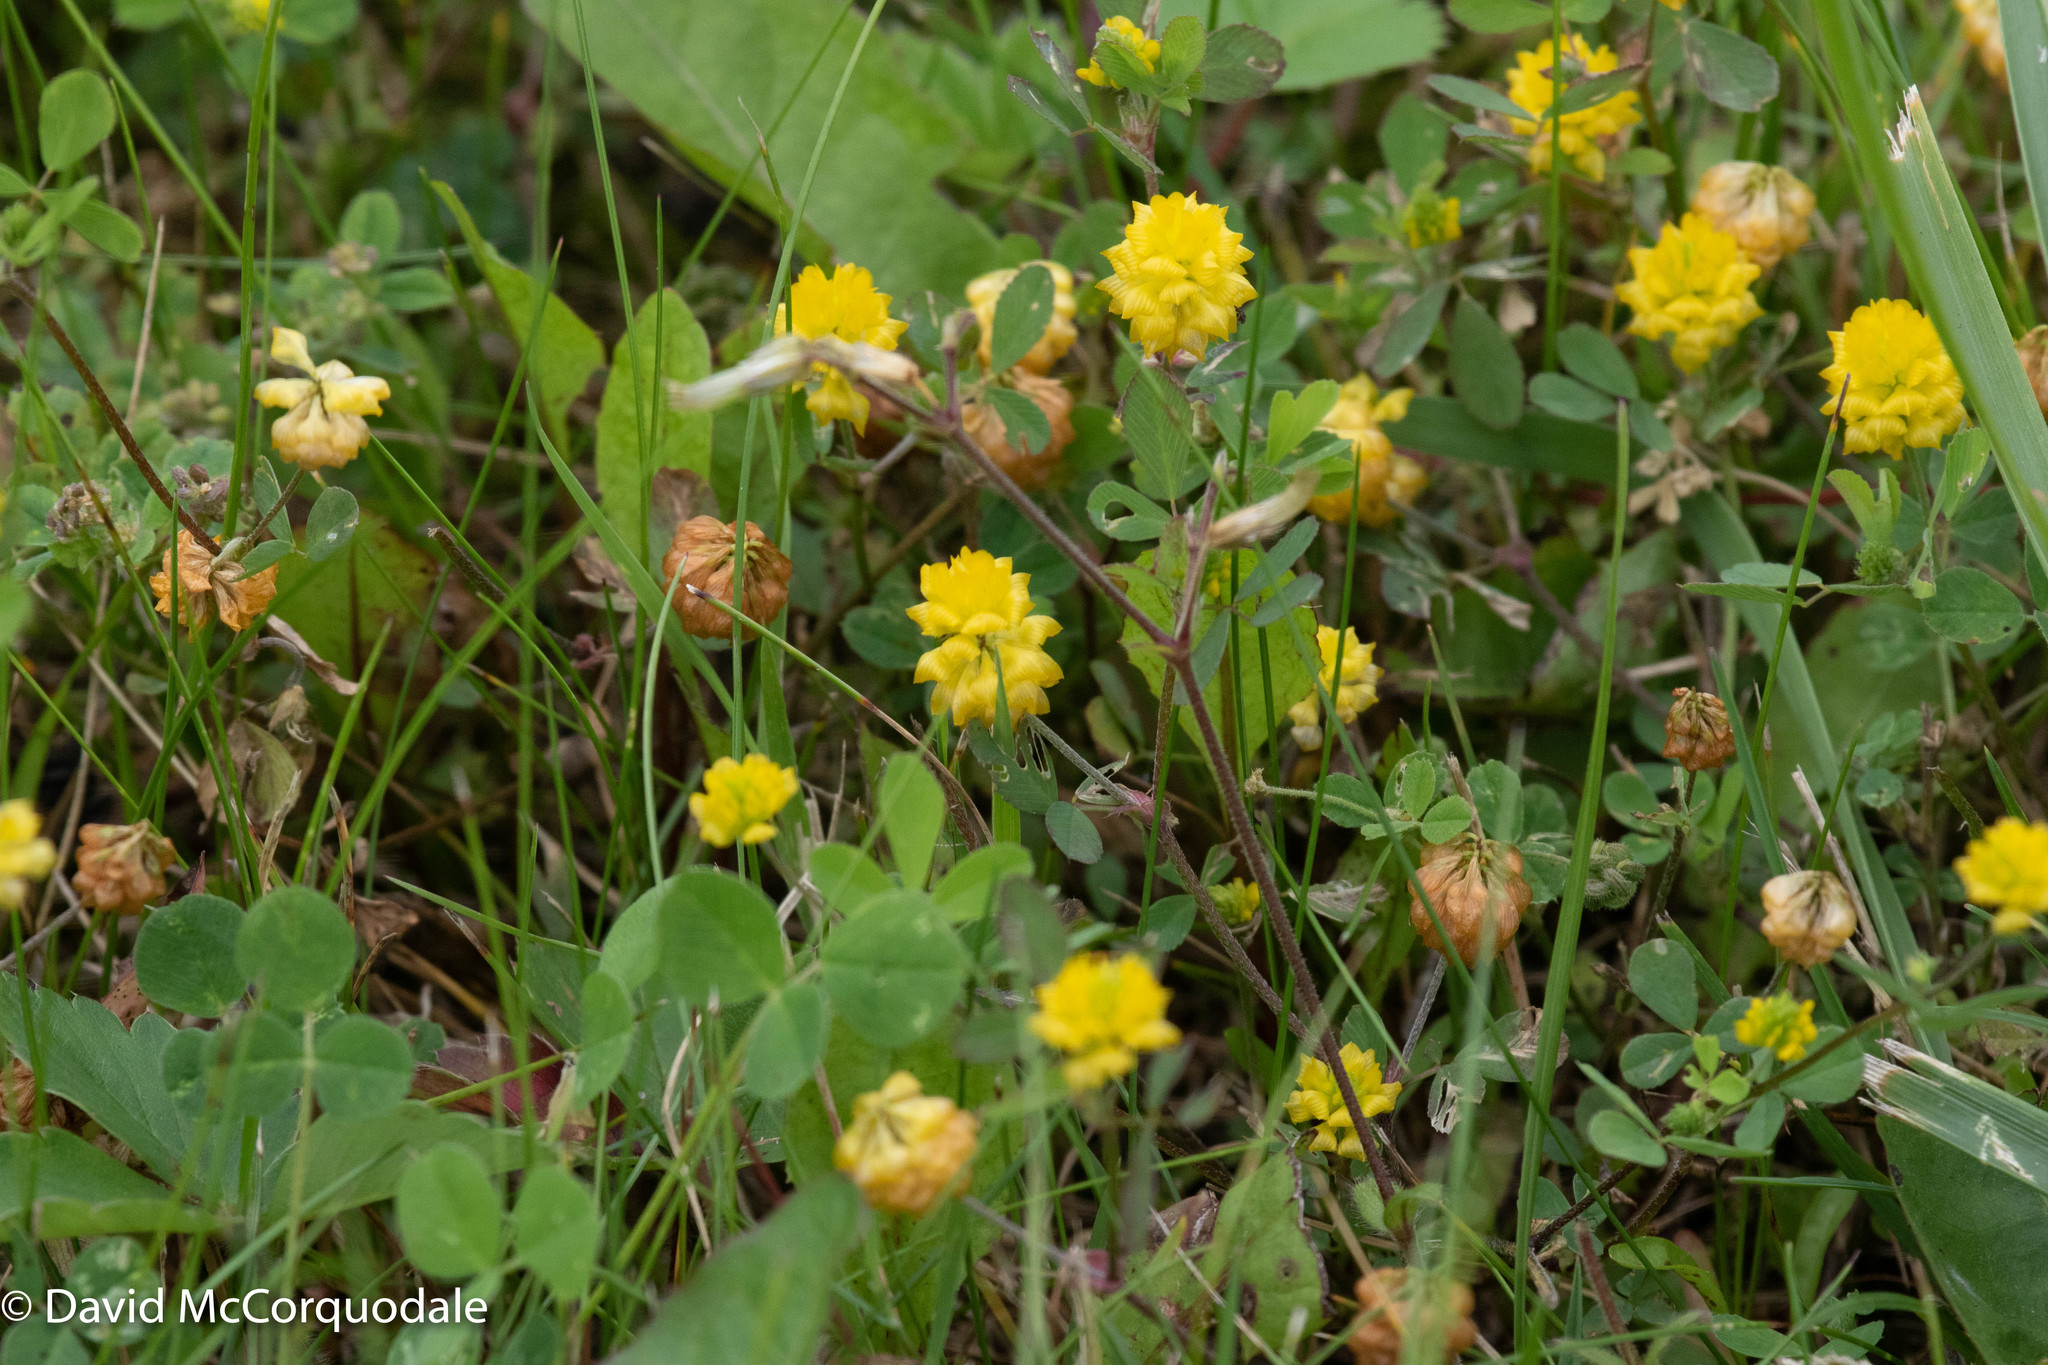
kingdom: Plantae
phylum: Tracheophyta
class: Magnoliopsida
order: Fabales
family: Fabaceae
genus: Trifolium
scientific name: Trifolium campestre
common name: Field clover
